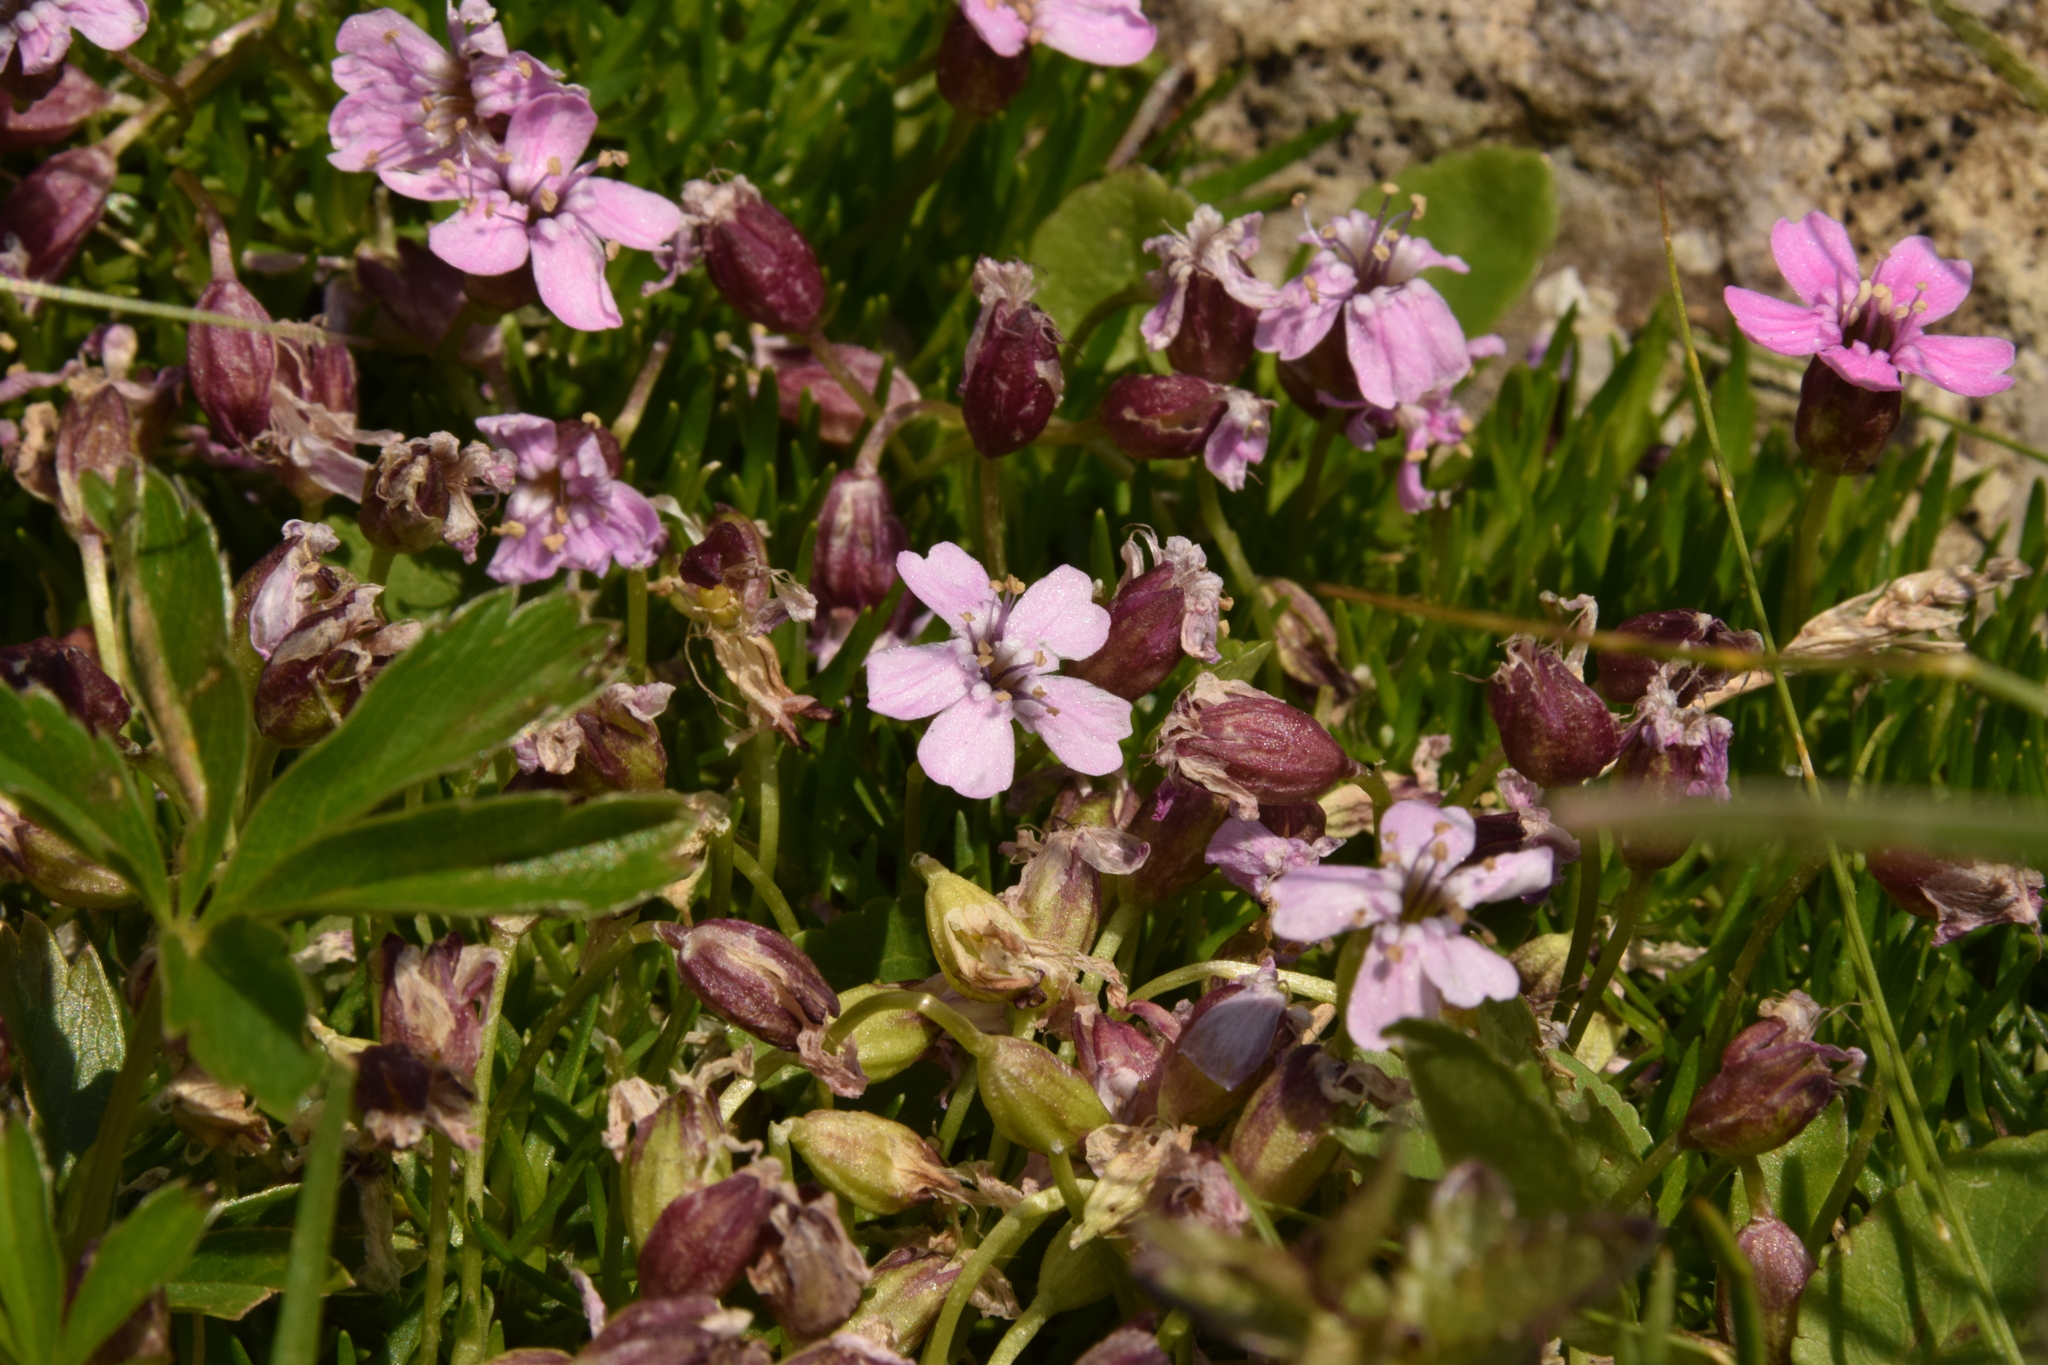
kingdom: Plantae
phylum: Tracheophyta
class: Magnoliopsida
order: Caryophyllales
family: Caryophyllaceae
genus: Silene
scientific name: Silene acaulis
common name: Moss campion
